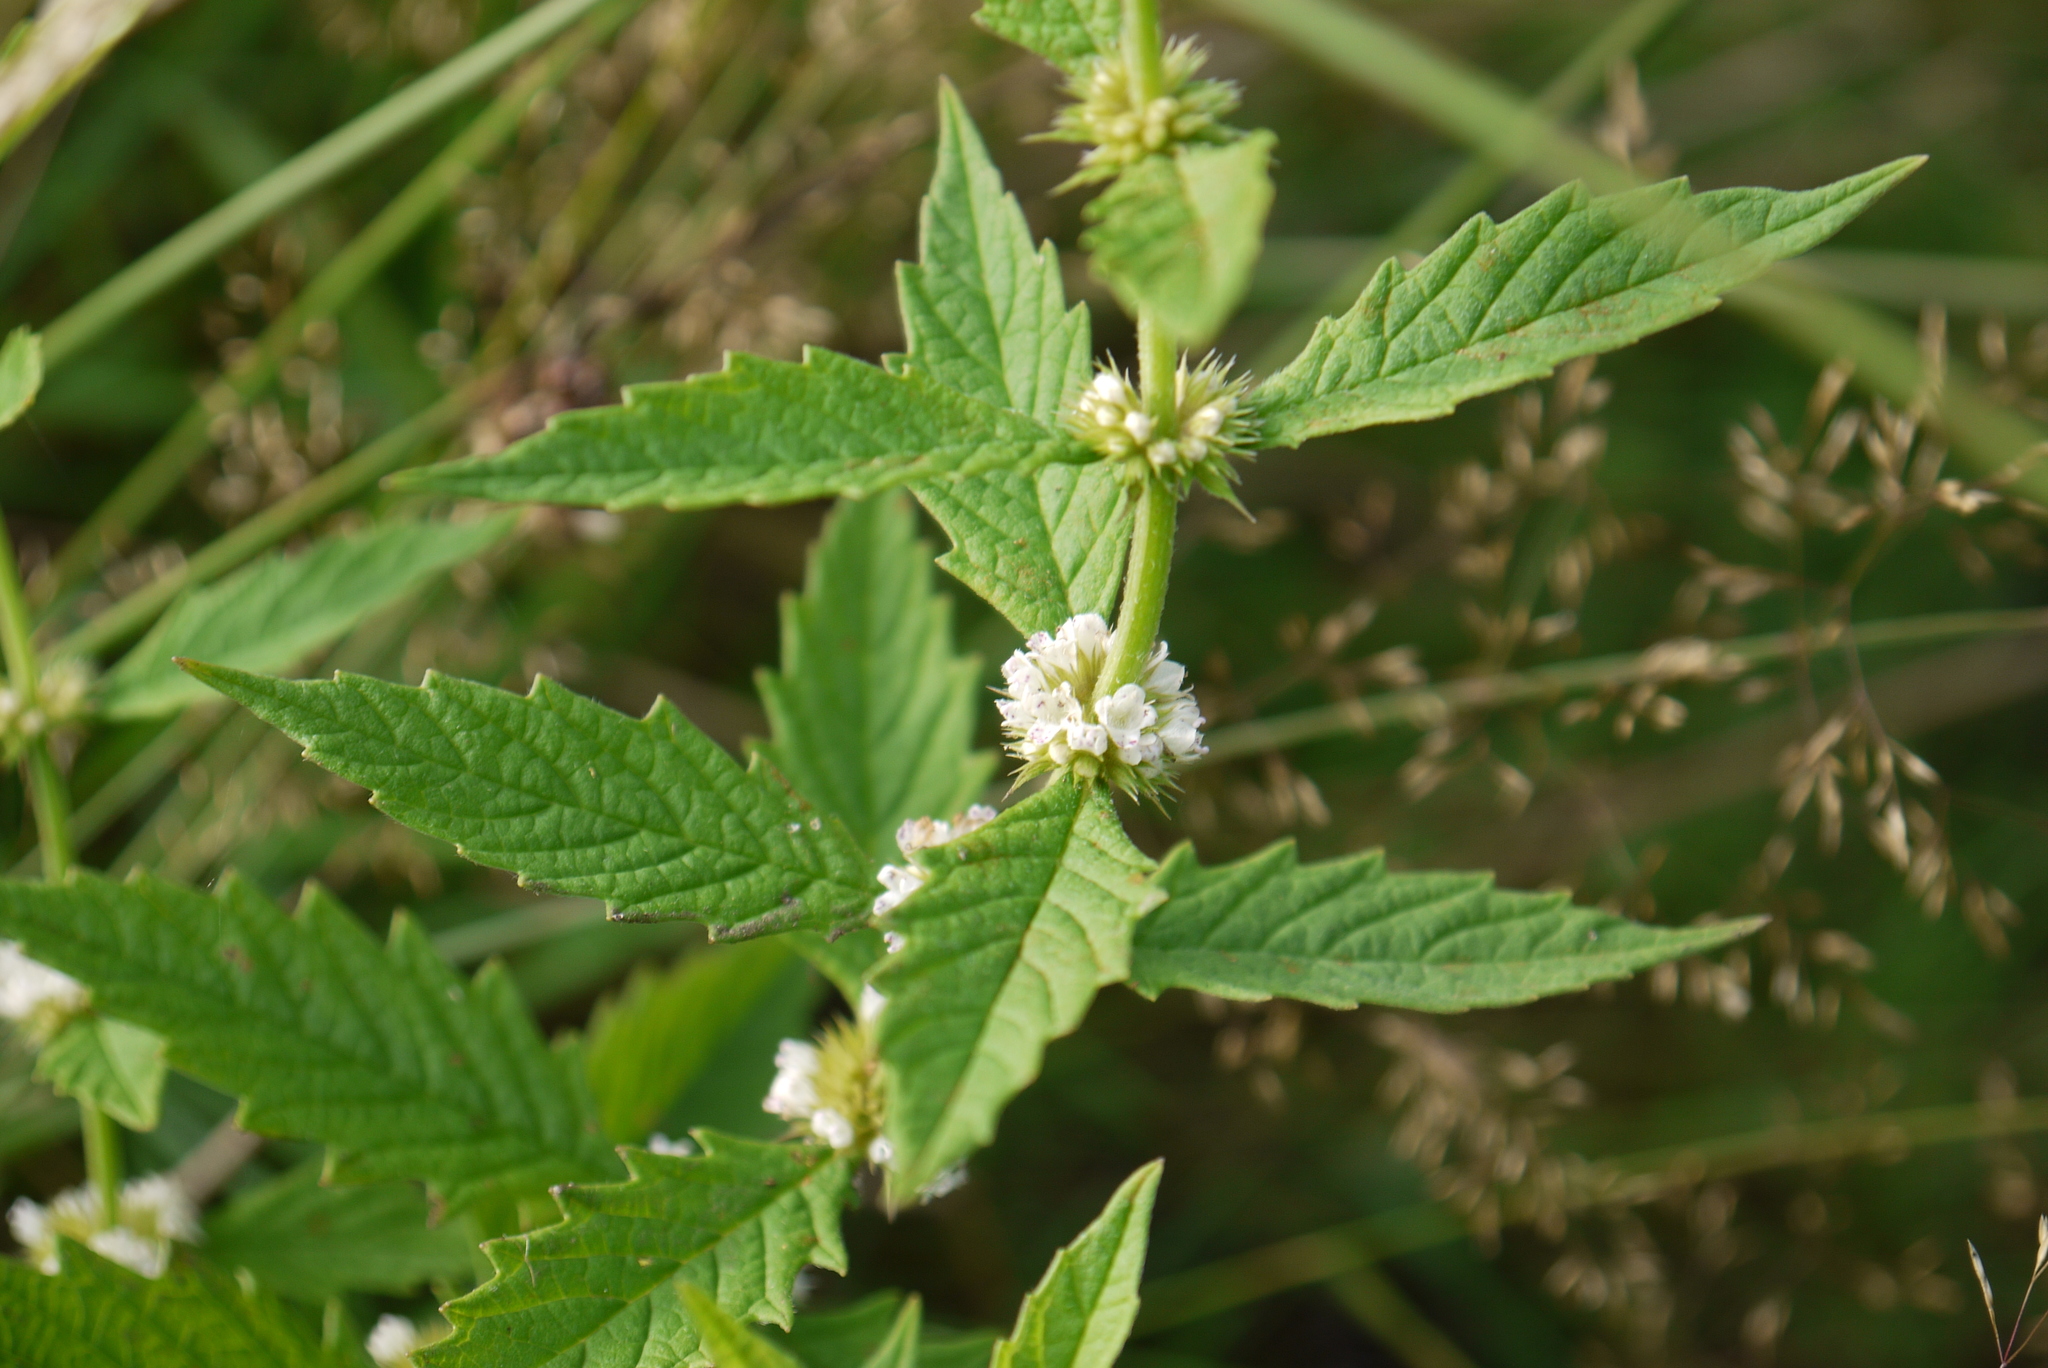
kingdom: Plantae
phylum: Tracheophyta
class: Magnoliopsida
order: Lamiales
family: Lamiaceae
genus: Lycopus
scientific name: Lycopus europaeus
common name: European bugleweed
